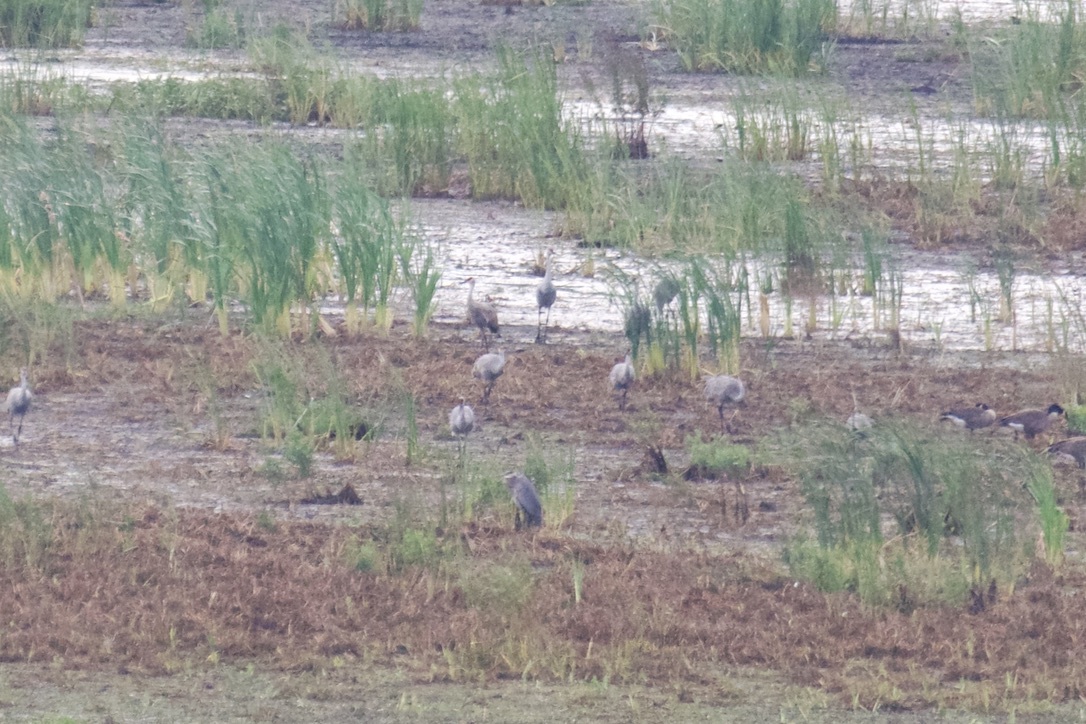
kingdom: Animalia
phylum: Chordata
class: Aves
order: Gruiformes
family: Gruidae
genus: Grus
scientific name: Grus canadensis
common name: Sandhill crane
